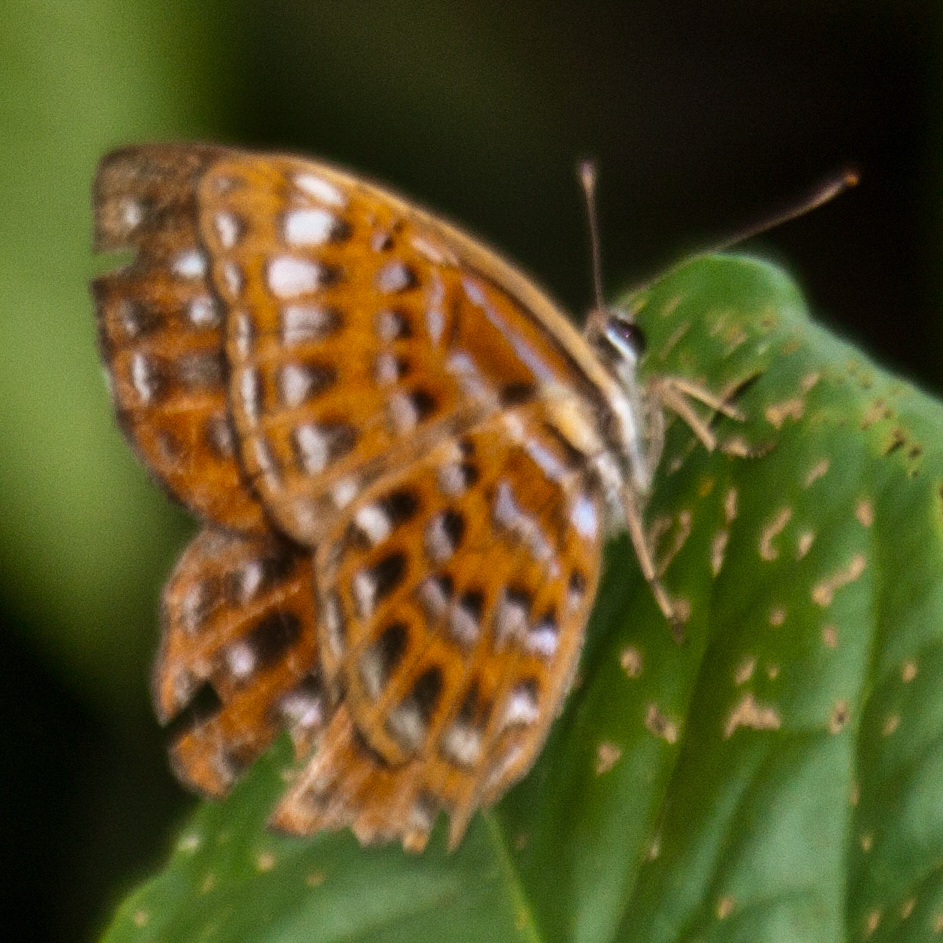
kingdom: Animalia
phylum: Arthropoda
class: Insecta
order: Lepidoptera
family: Riodinidae
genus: Laxita
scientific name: Laxita thuisto
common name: Lesser harlequin
